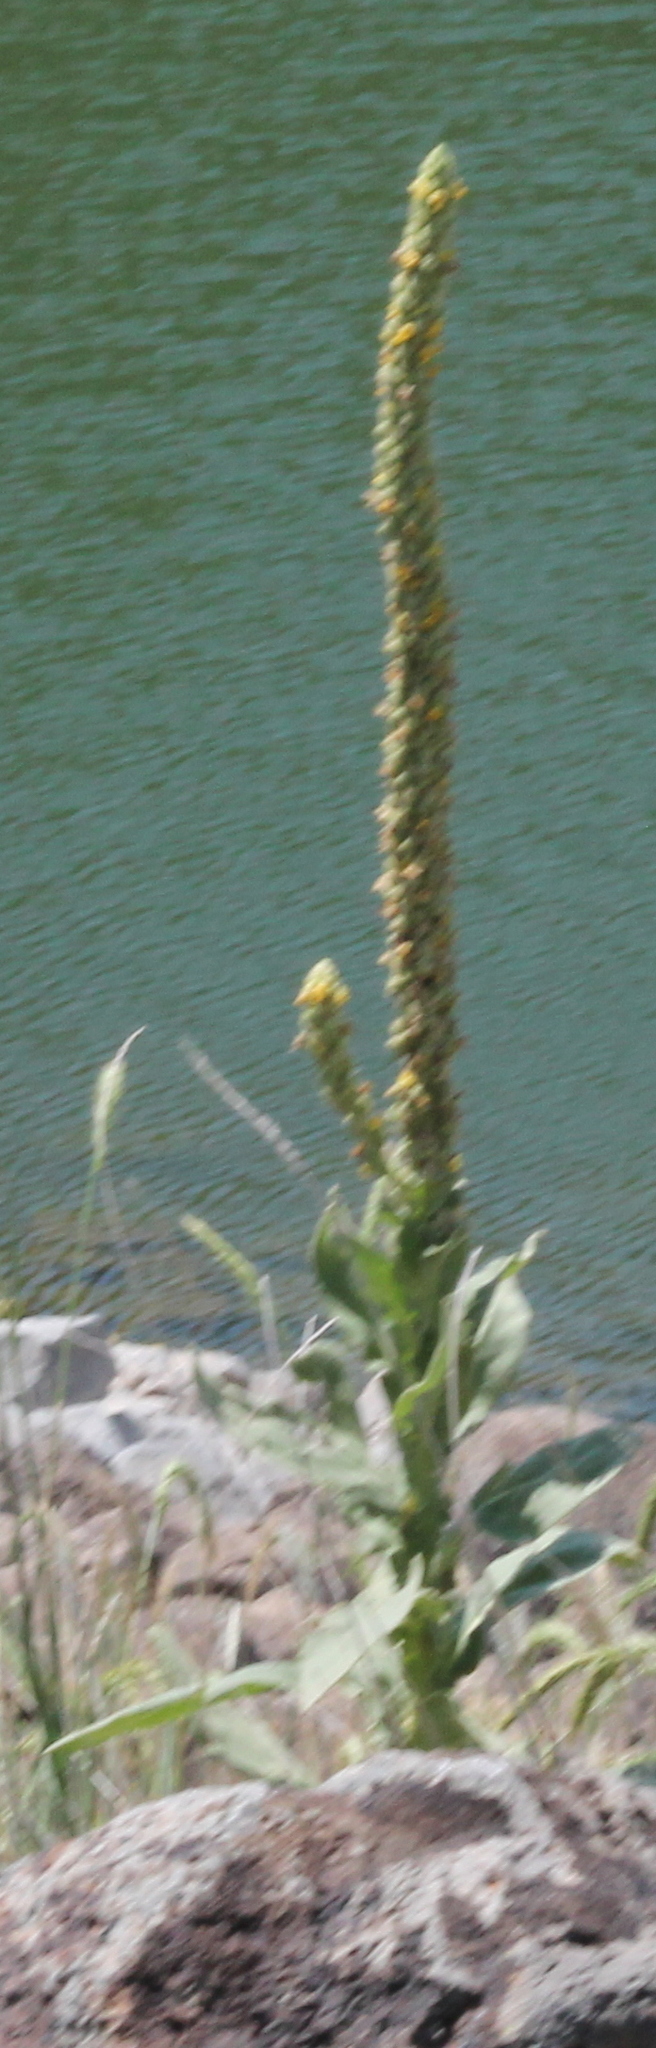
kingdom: Plantae
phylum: Tracheophyta
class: Magnoliopsida
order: Lamiales
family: Scrophulariaceae
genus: Verbascum
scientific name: Verbascum thapsus
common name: Common mullein
